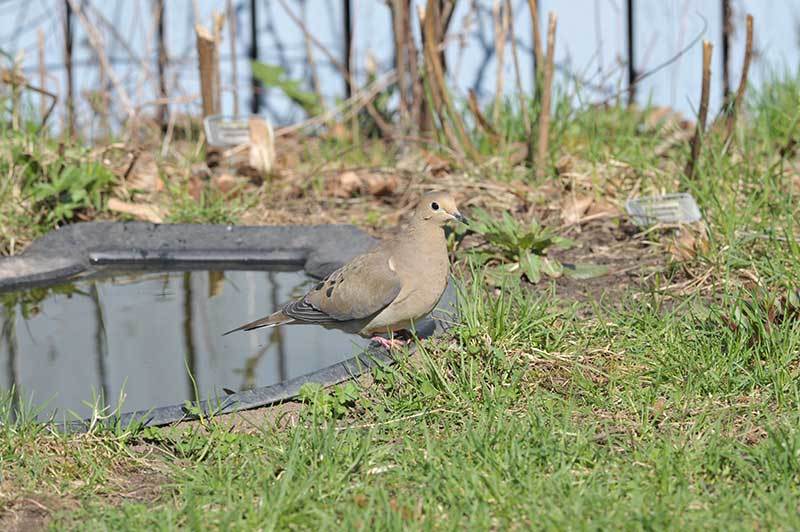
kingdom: Animalia
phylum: Chordata
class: Aves
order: Columbiformes
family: Columbidae
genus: Zenaida
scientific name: Zenaida macroura
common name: Mourning dove
